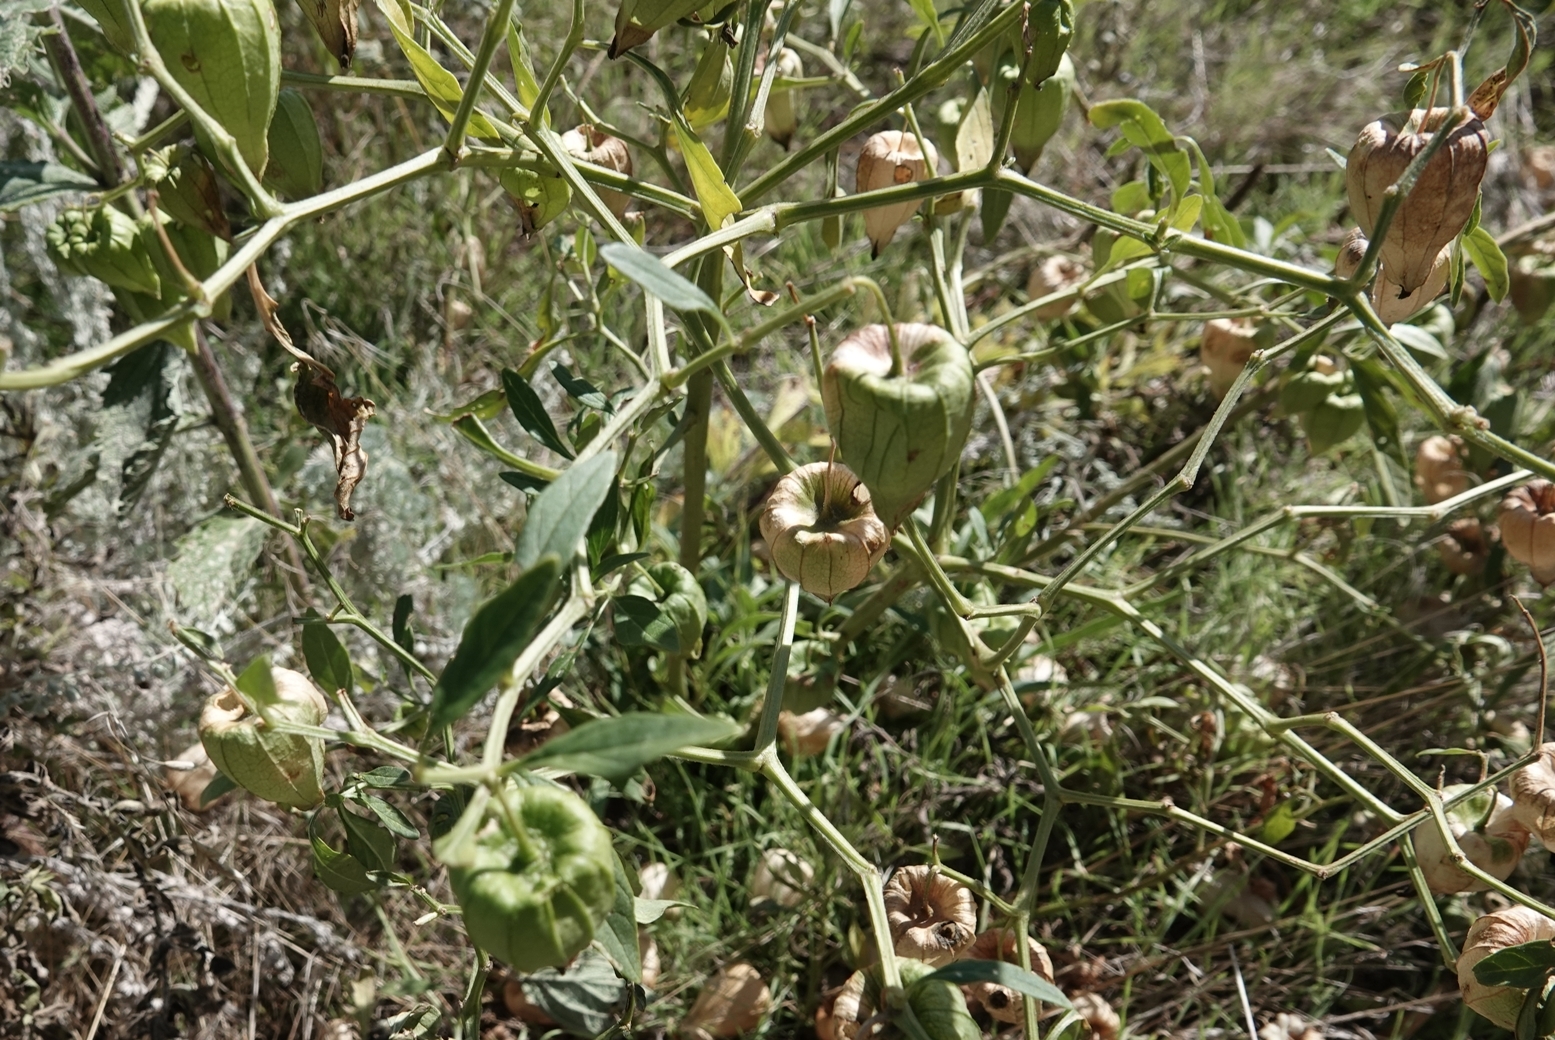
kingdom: Plantae
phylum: Tracheophyta
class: Magnoliopsida
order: Solanales
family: Solanaceae
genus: Physalis
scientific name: Physalis longifolia
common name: Common ground-cherry
